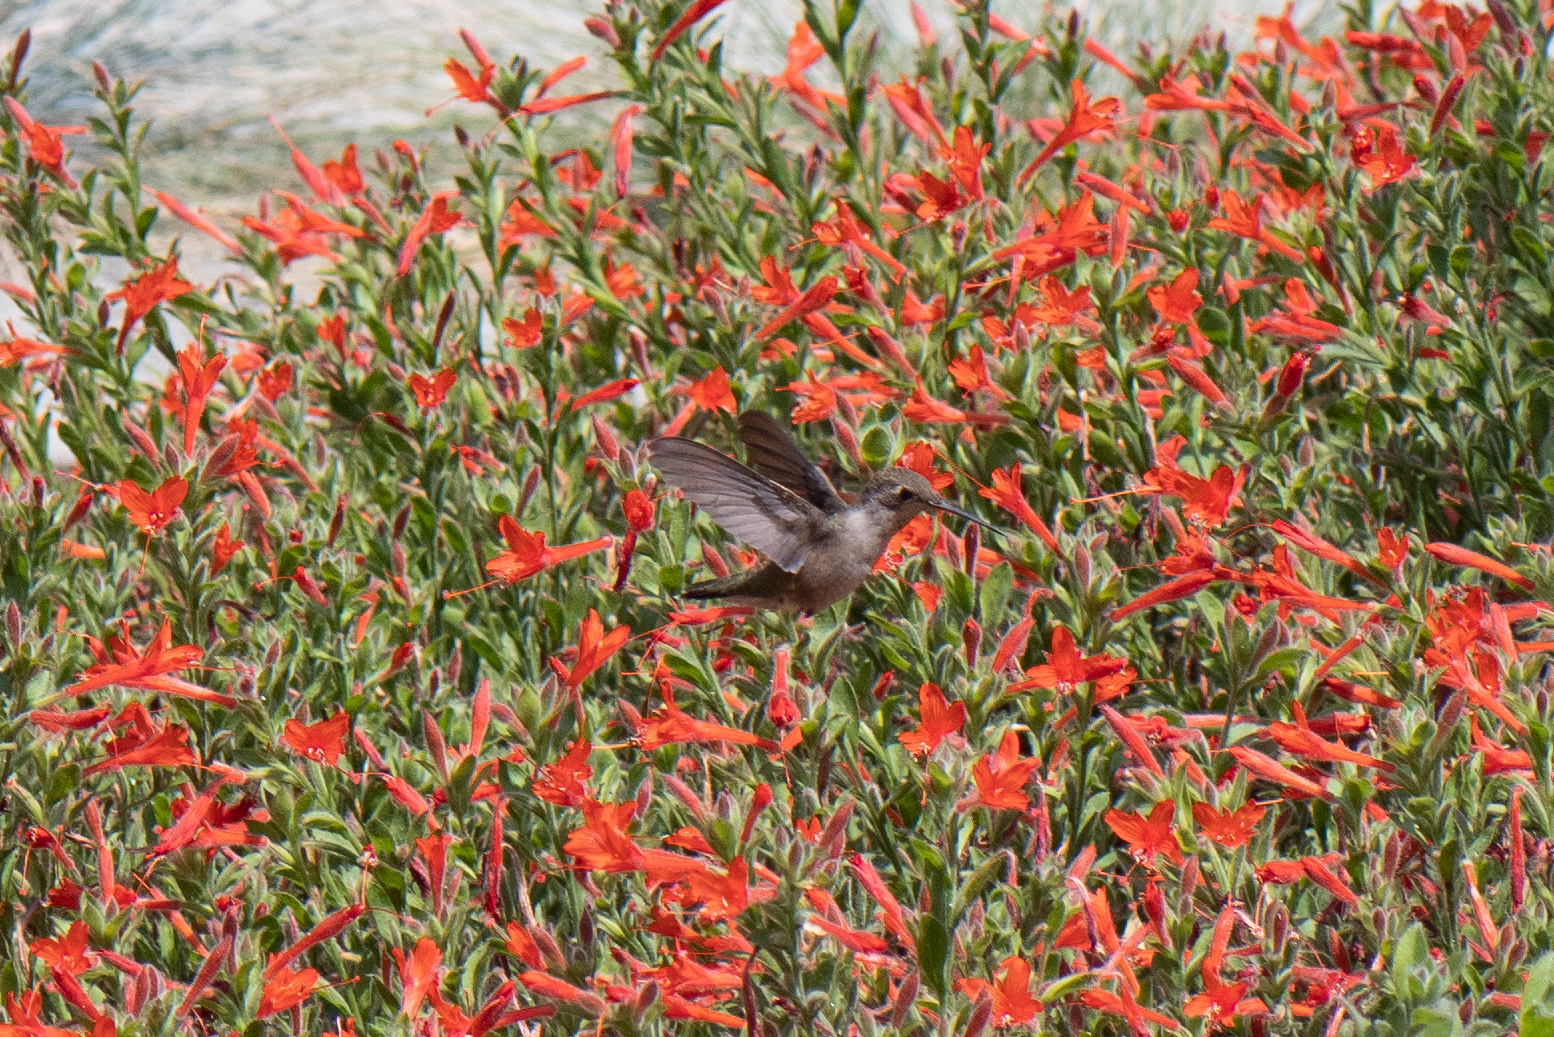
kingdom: Animalia
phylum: Chordata
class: Aves
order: Apodiformes
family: Trochilidae
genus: Calypte
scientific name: Calypte anna
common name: Anna's hummingbird
